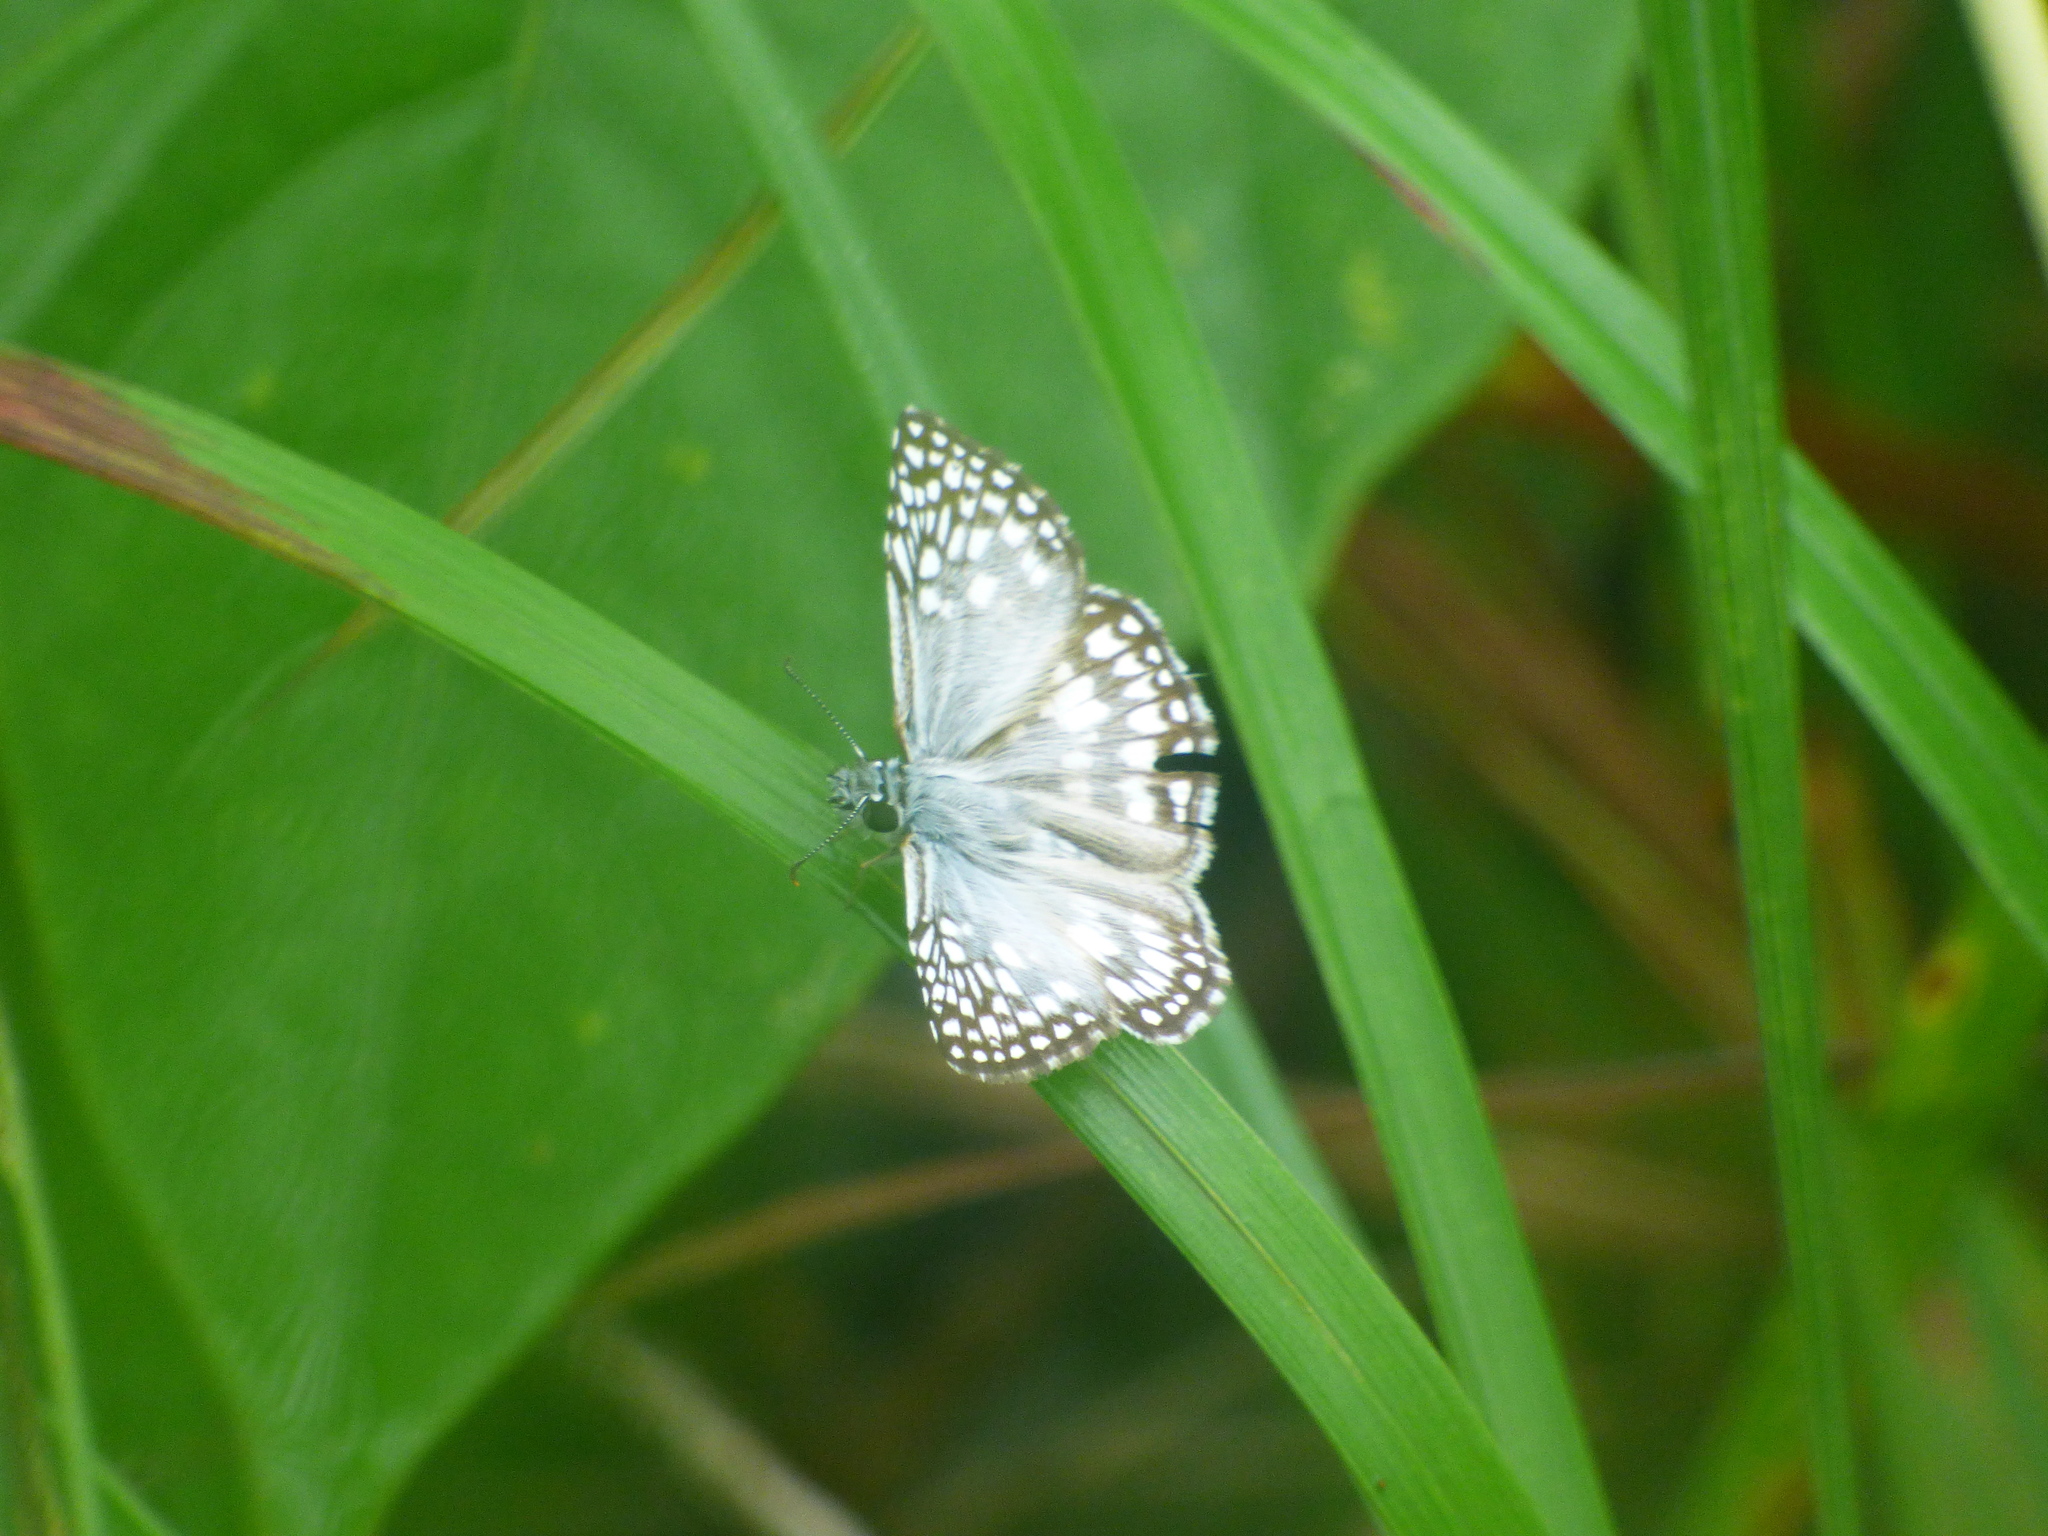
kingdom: Animalia
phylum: Arthropoda
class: Insecta
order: Lepidoptera
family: Hesperiidae
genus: Pyrgus
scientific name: Pyrgus oileus
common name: Tropical checkered-skipper
